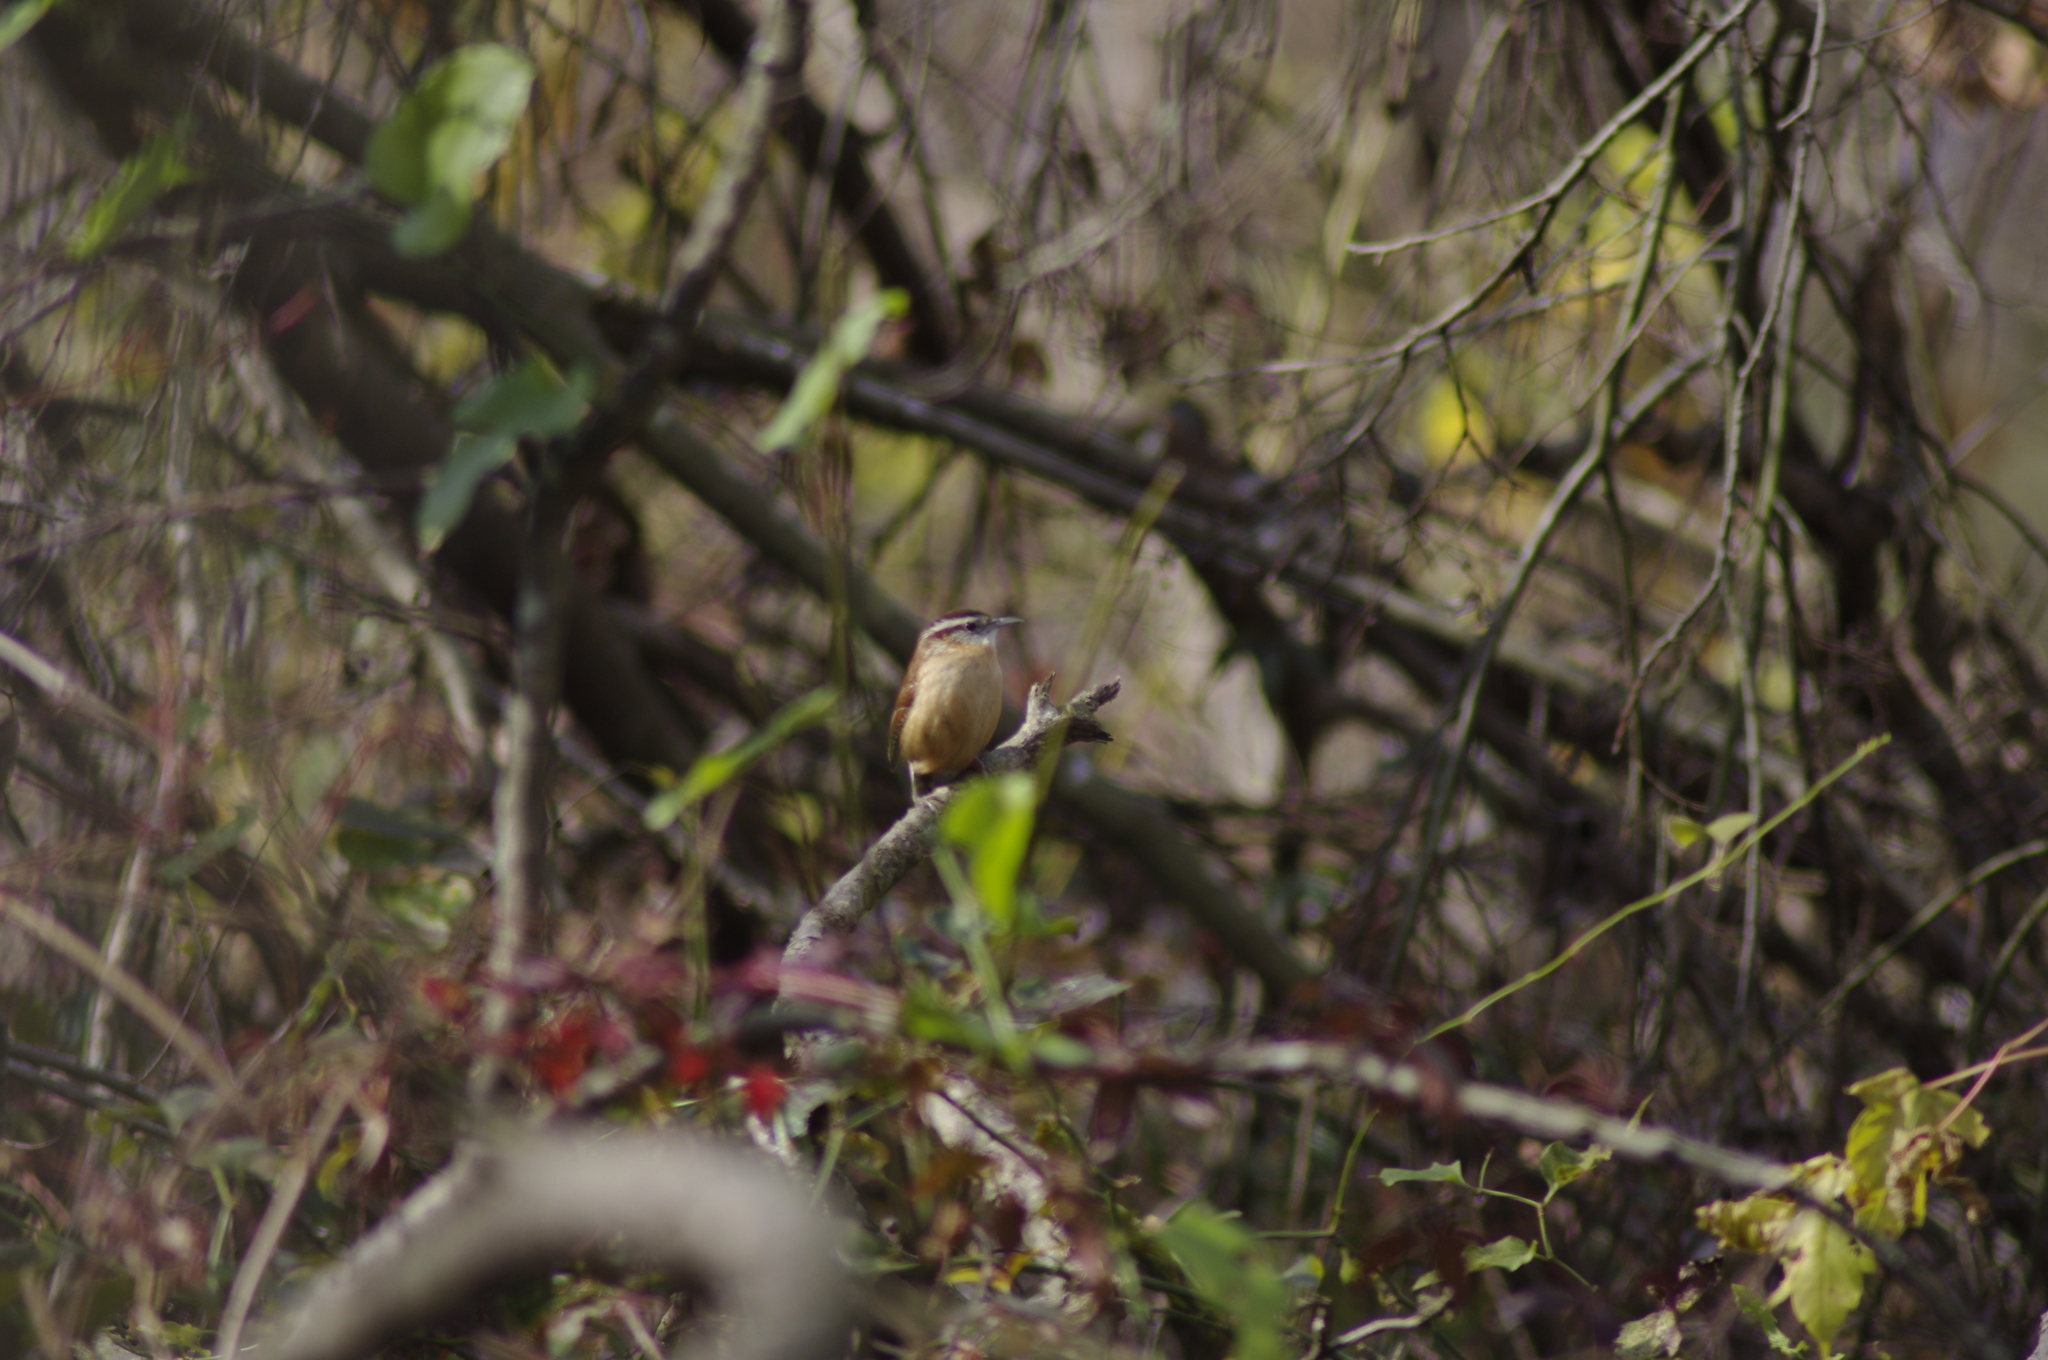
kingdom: Animalia
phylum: Chordata
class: Aves
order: Passeriformes
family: Troglodytidae
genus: Thryothorus
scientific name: Thryothorus ludovicianus
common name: Carolina wren
